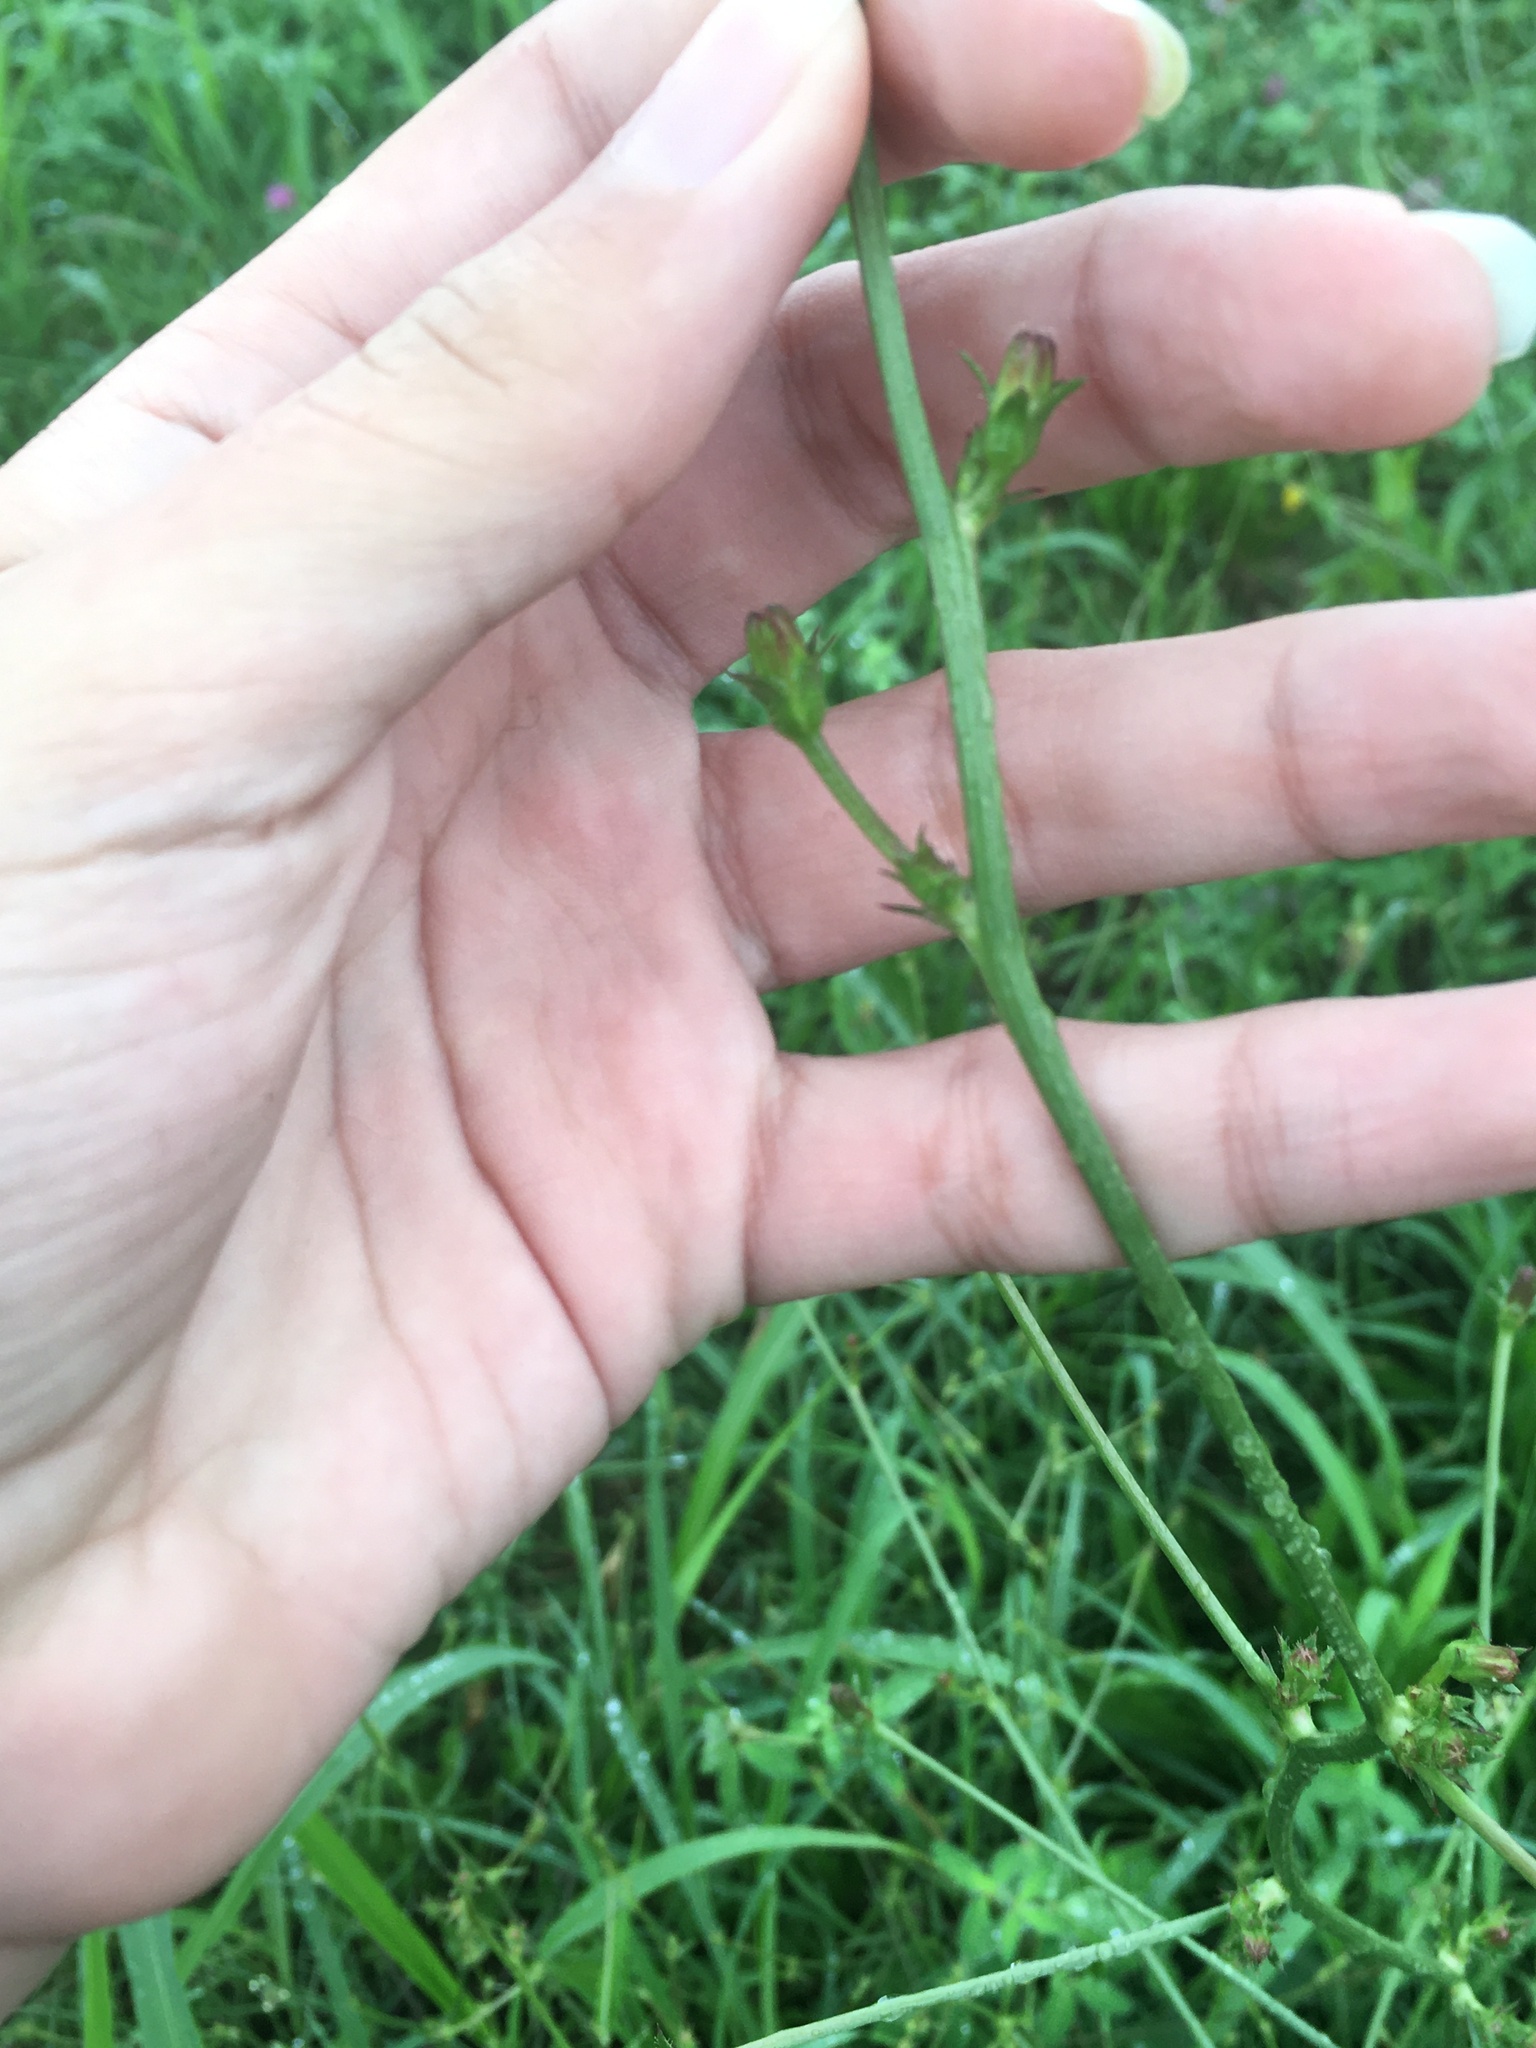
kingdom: Plantae
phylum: Tracheophyta
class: Magnoliopsida
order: Asterales
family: Asteraceae
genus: Cichorium
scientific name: Cichorium intybus
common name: Chicory
